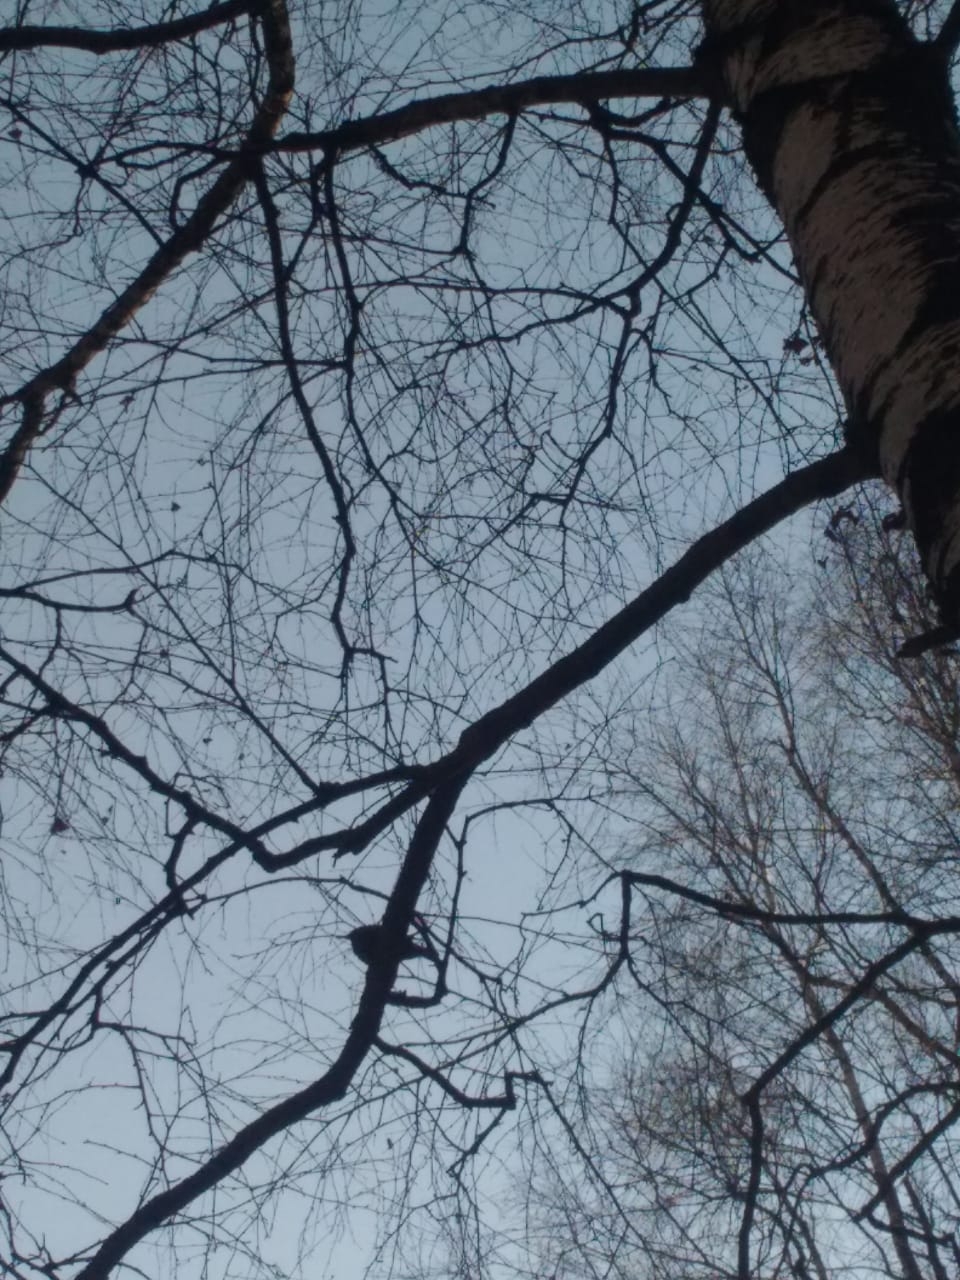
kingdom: Animalia
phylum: Chordata
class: Aves
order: Passeriformes
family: Sturnidae
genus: Sturnus
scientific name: Sturnus vulgaris
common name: Common starling
